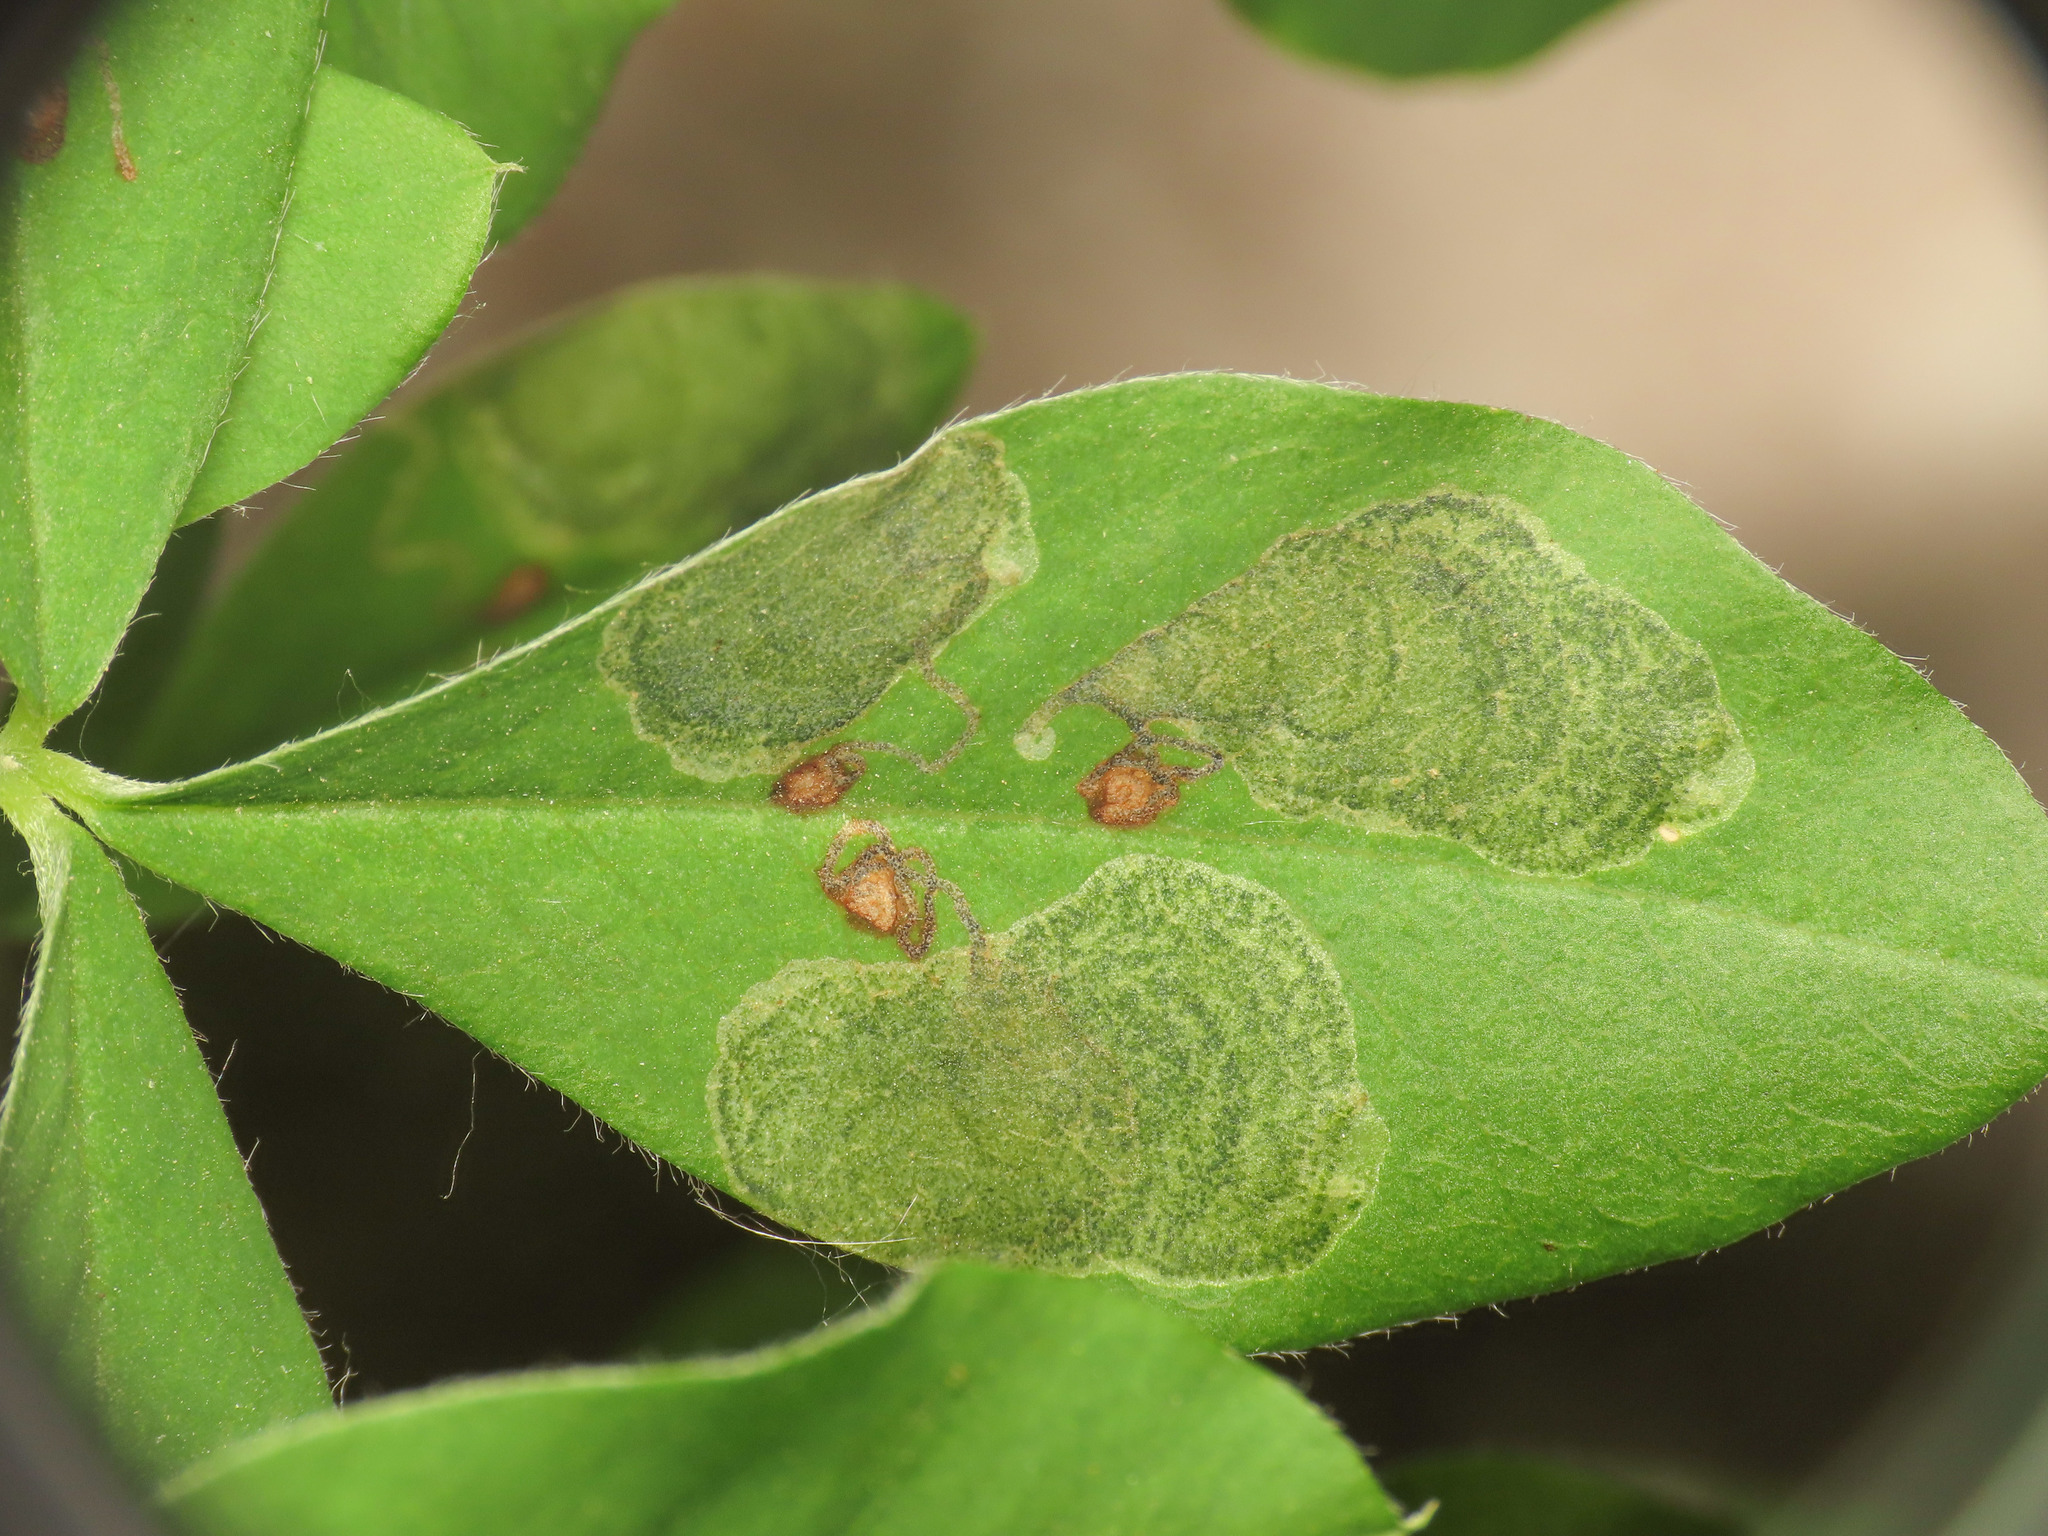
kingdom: Animalia
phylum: Arthropoda
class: Insecta
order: Lepidoptera
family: Lyonetiidae
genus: Leucoptera
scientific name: Leucoptera laburnella
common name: Laburnum leaf miner
